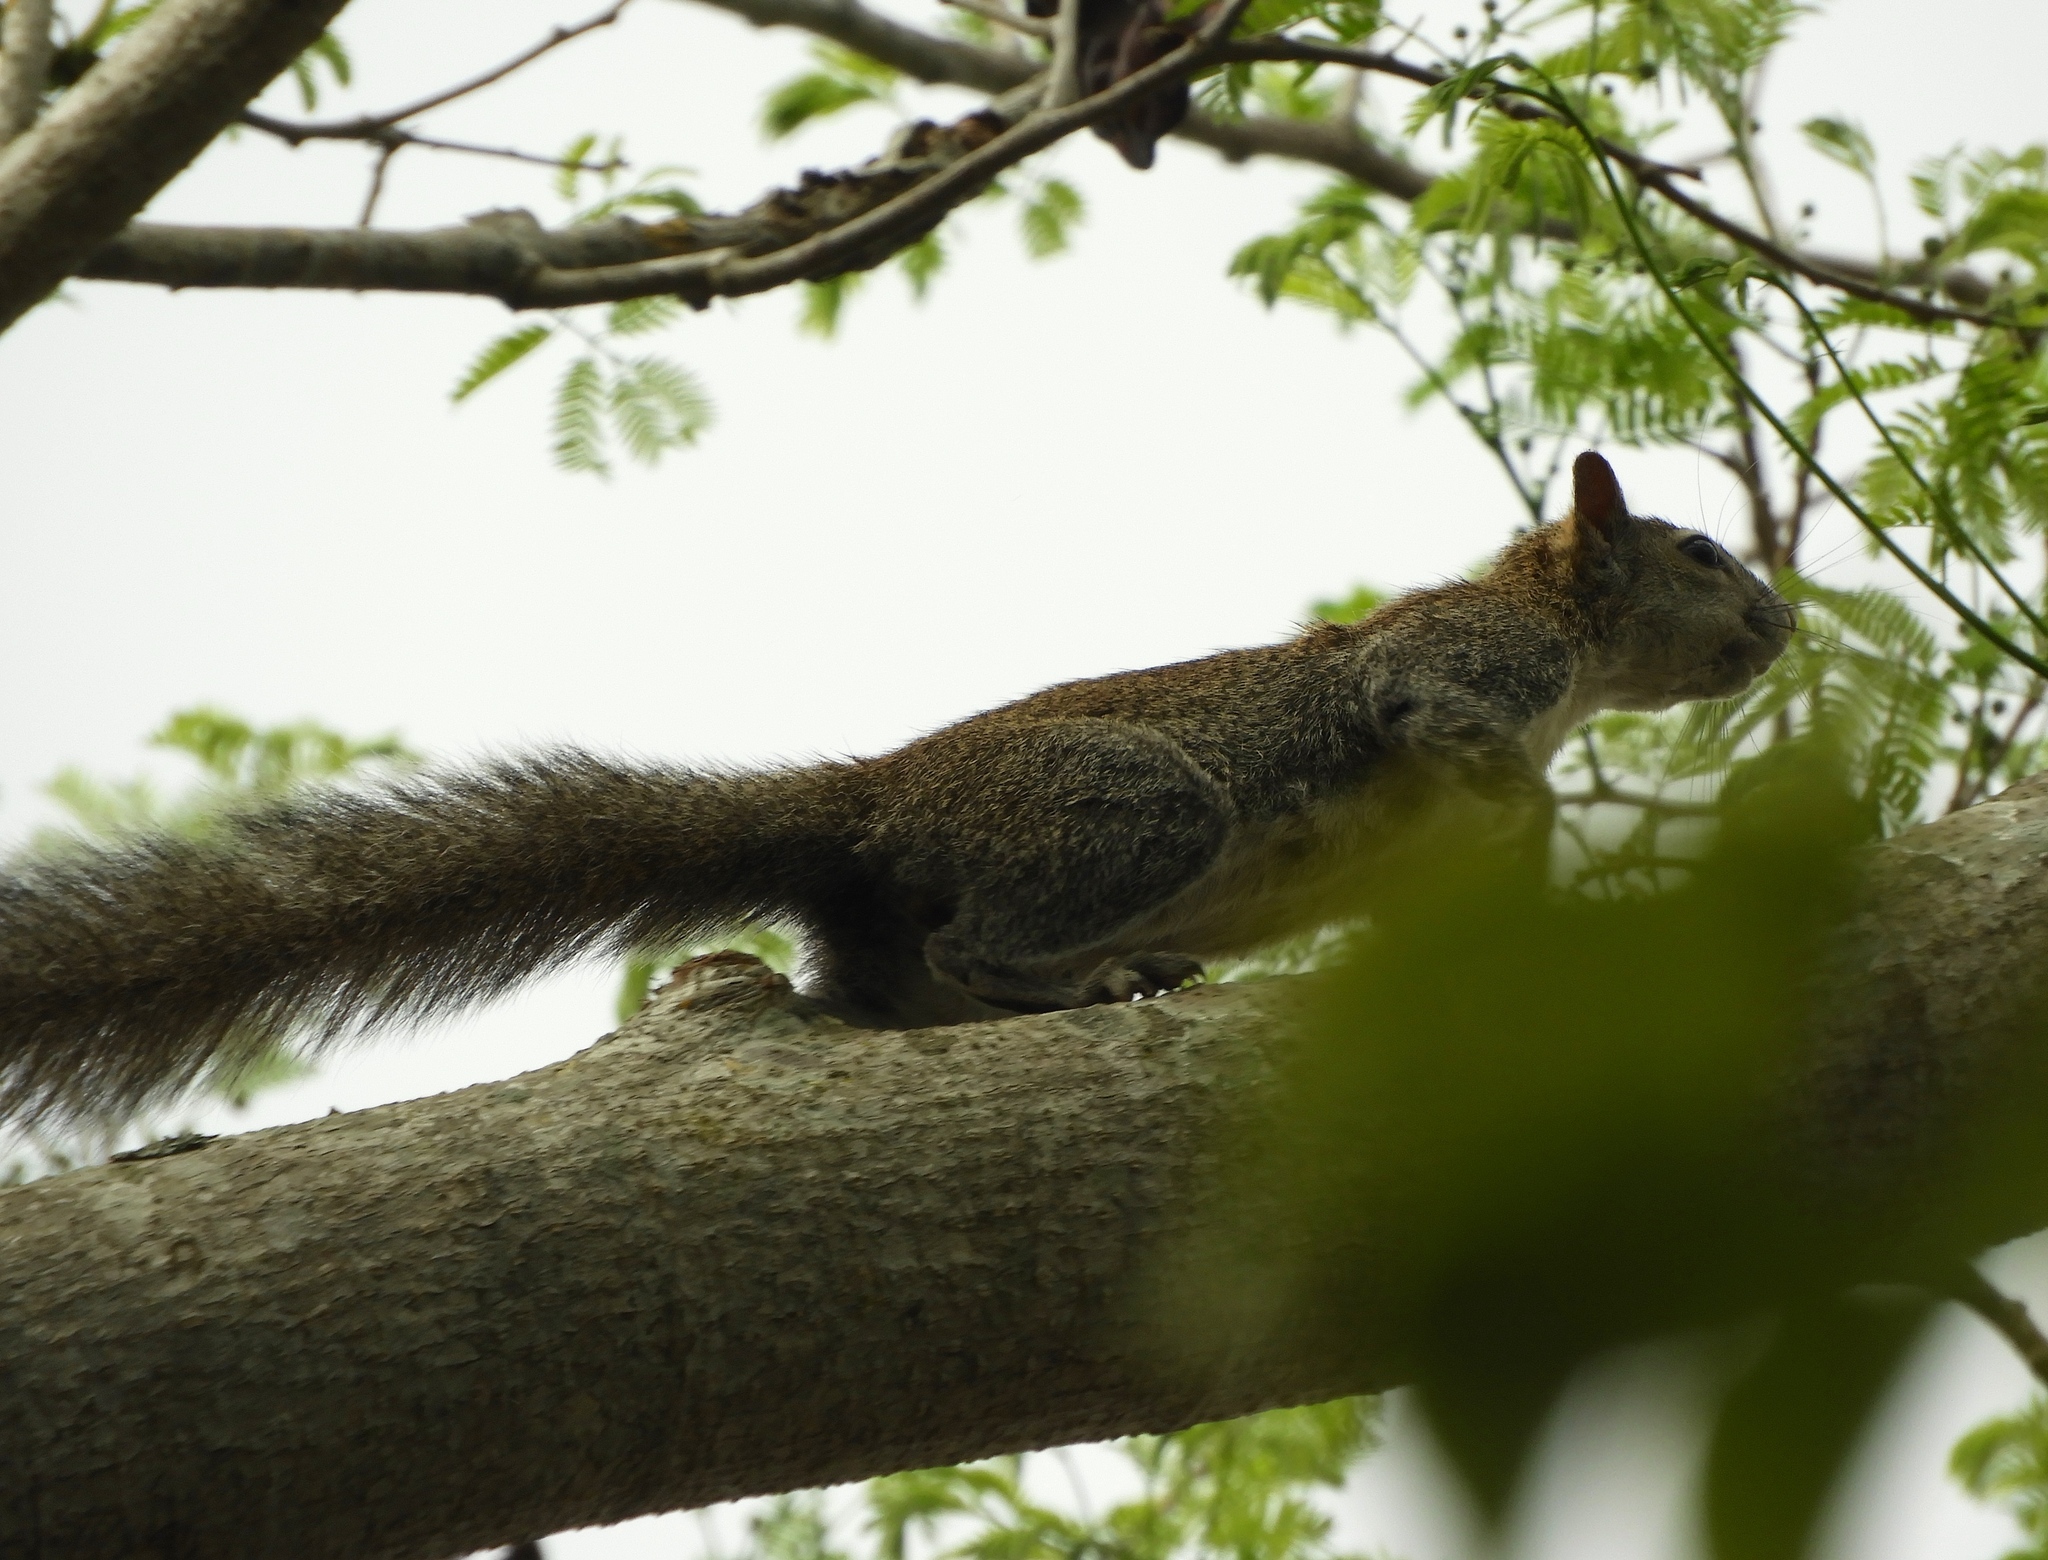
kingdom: Animalia
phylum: Chordata
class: Mammalia
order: Rodentia
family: Sciuridae
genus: Sciurus
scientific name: Sciurus colliaei
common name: Collie's squirrel
